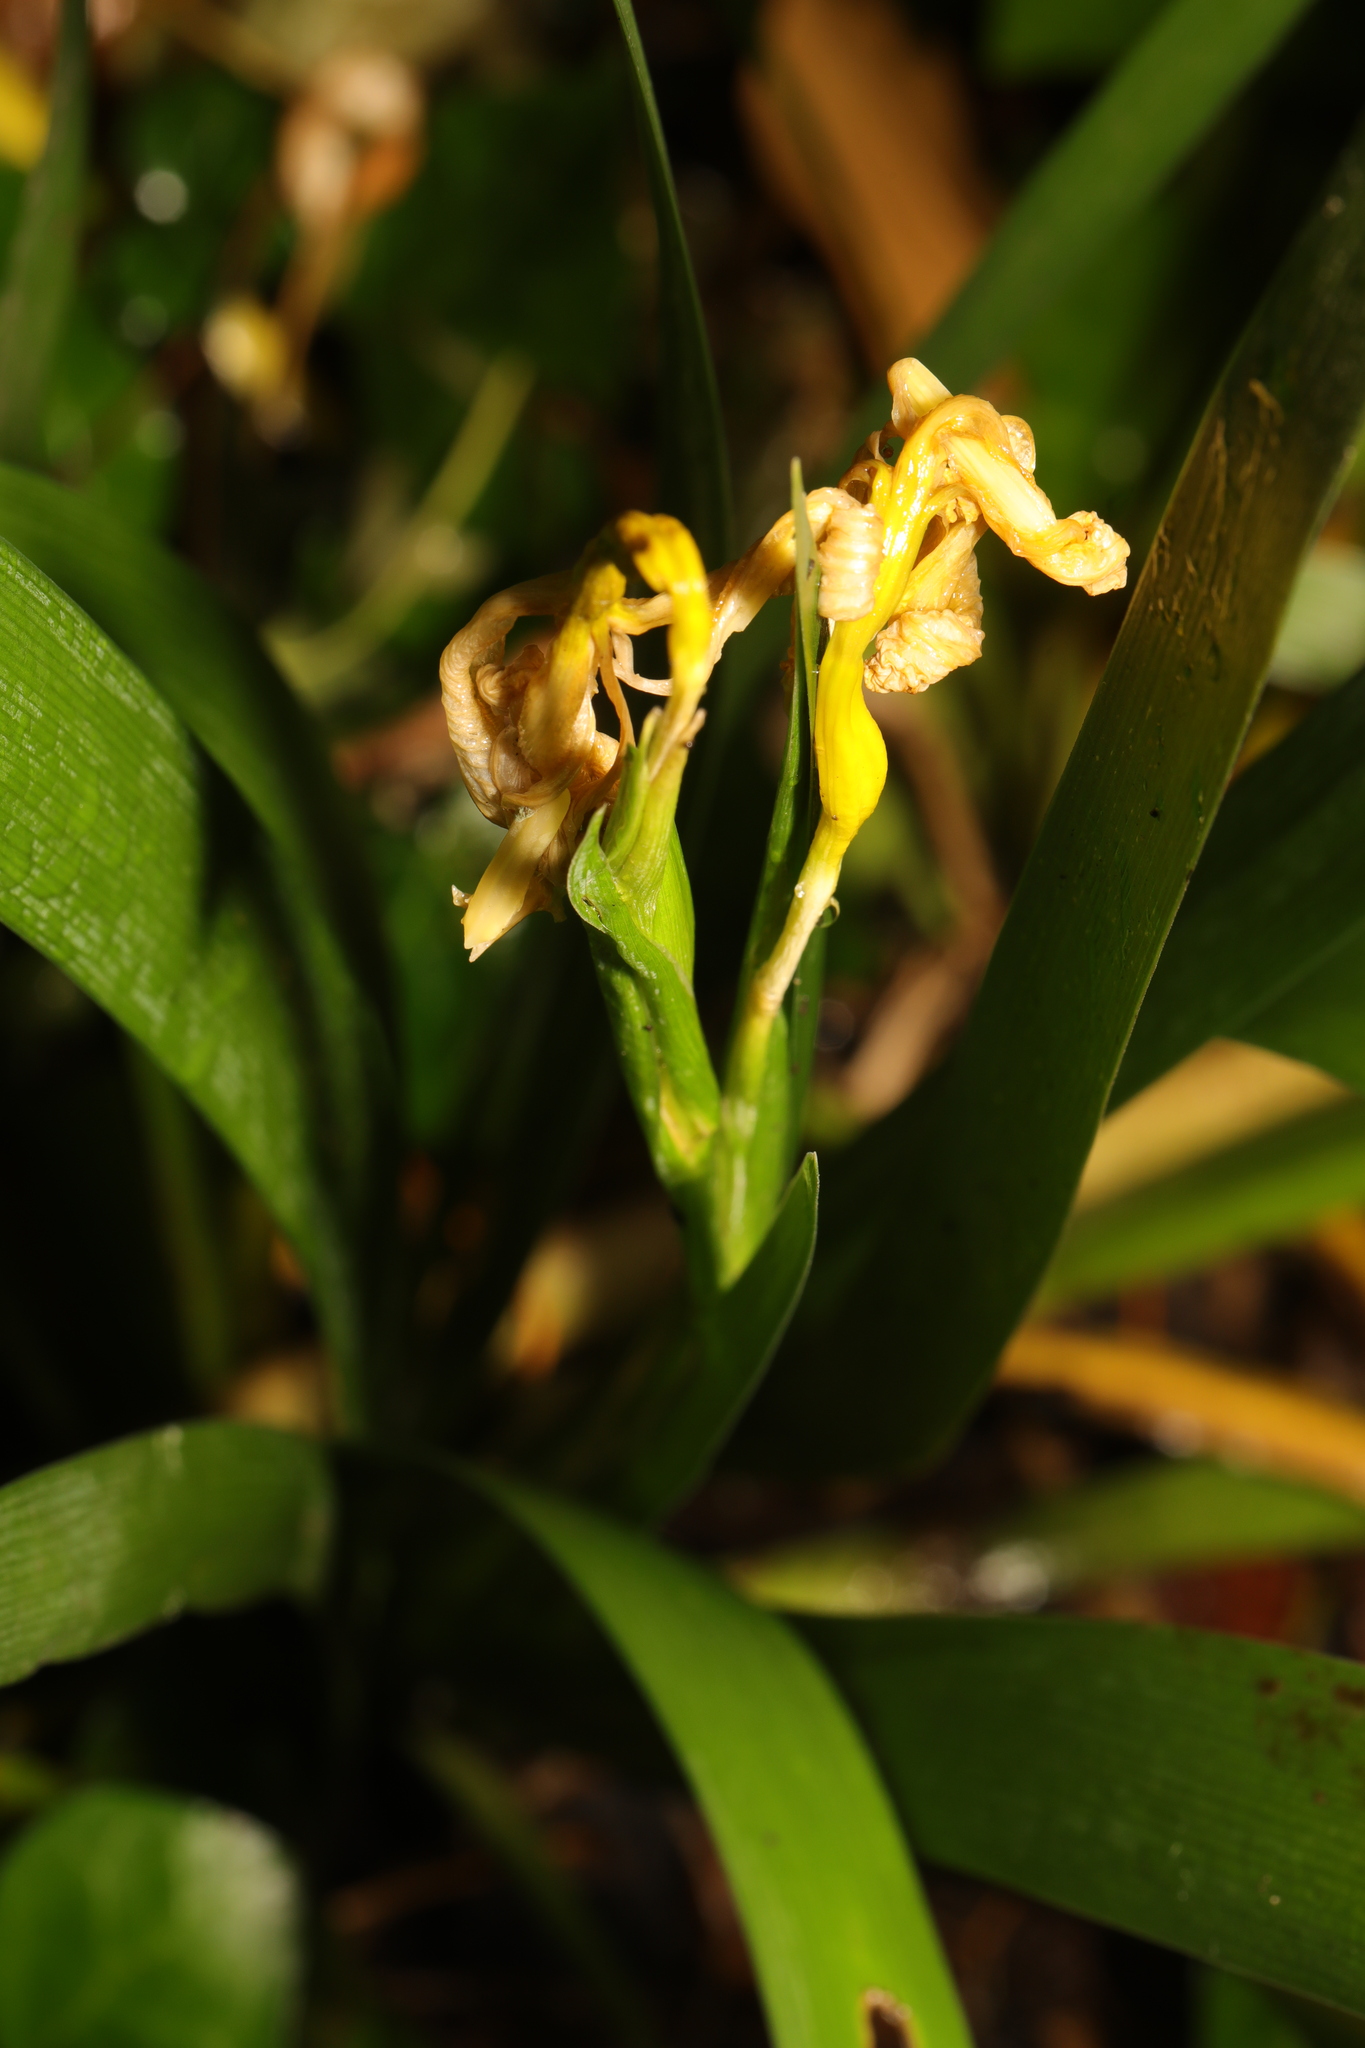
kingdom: Plantae
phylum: Tracheophyta
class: Liliopsida
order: Asparagales
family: Iridaceae
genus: Iris
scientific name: Iris foetidissima
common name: Stinking iris
